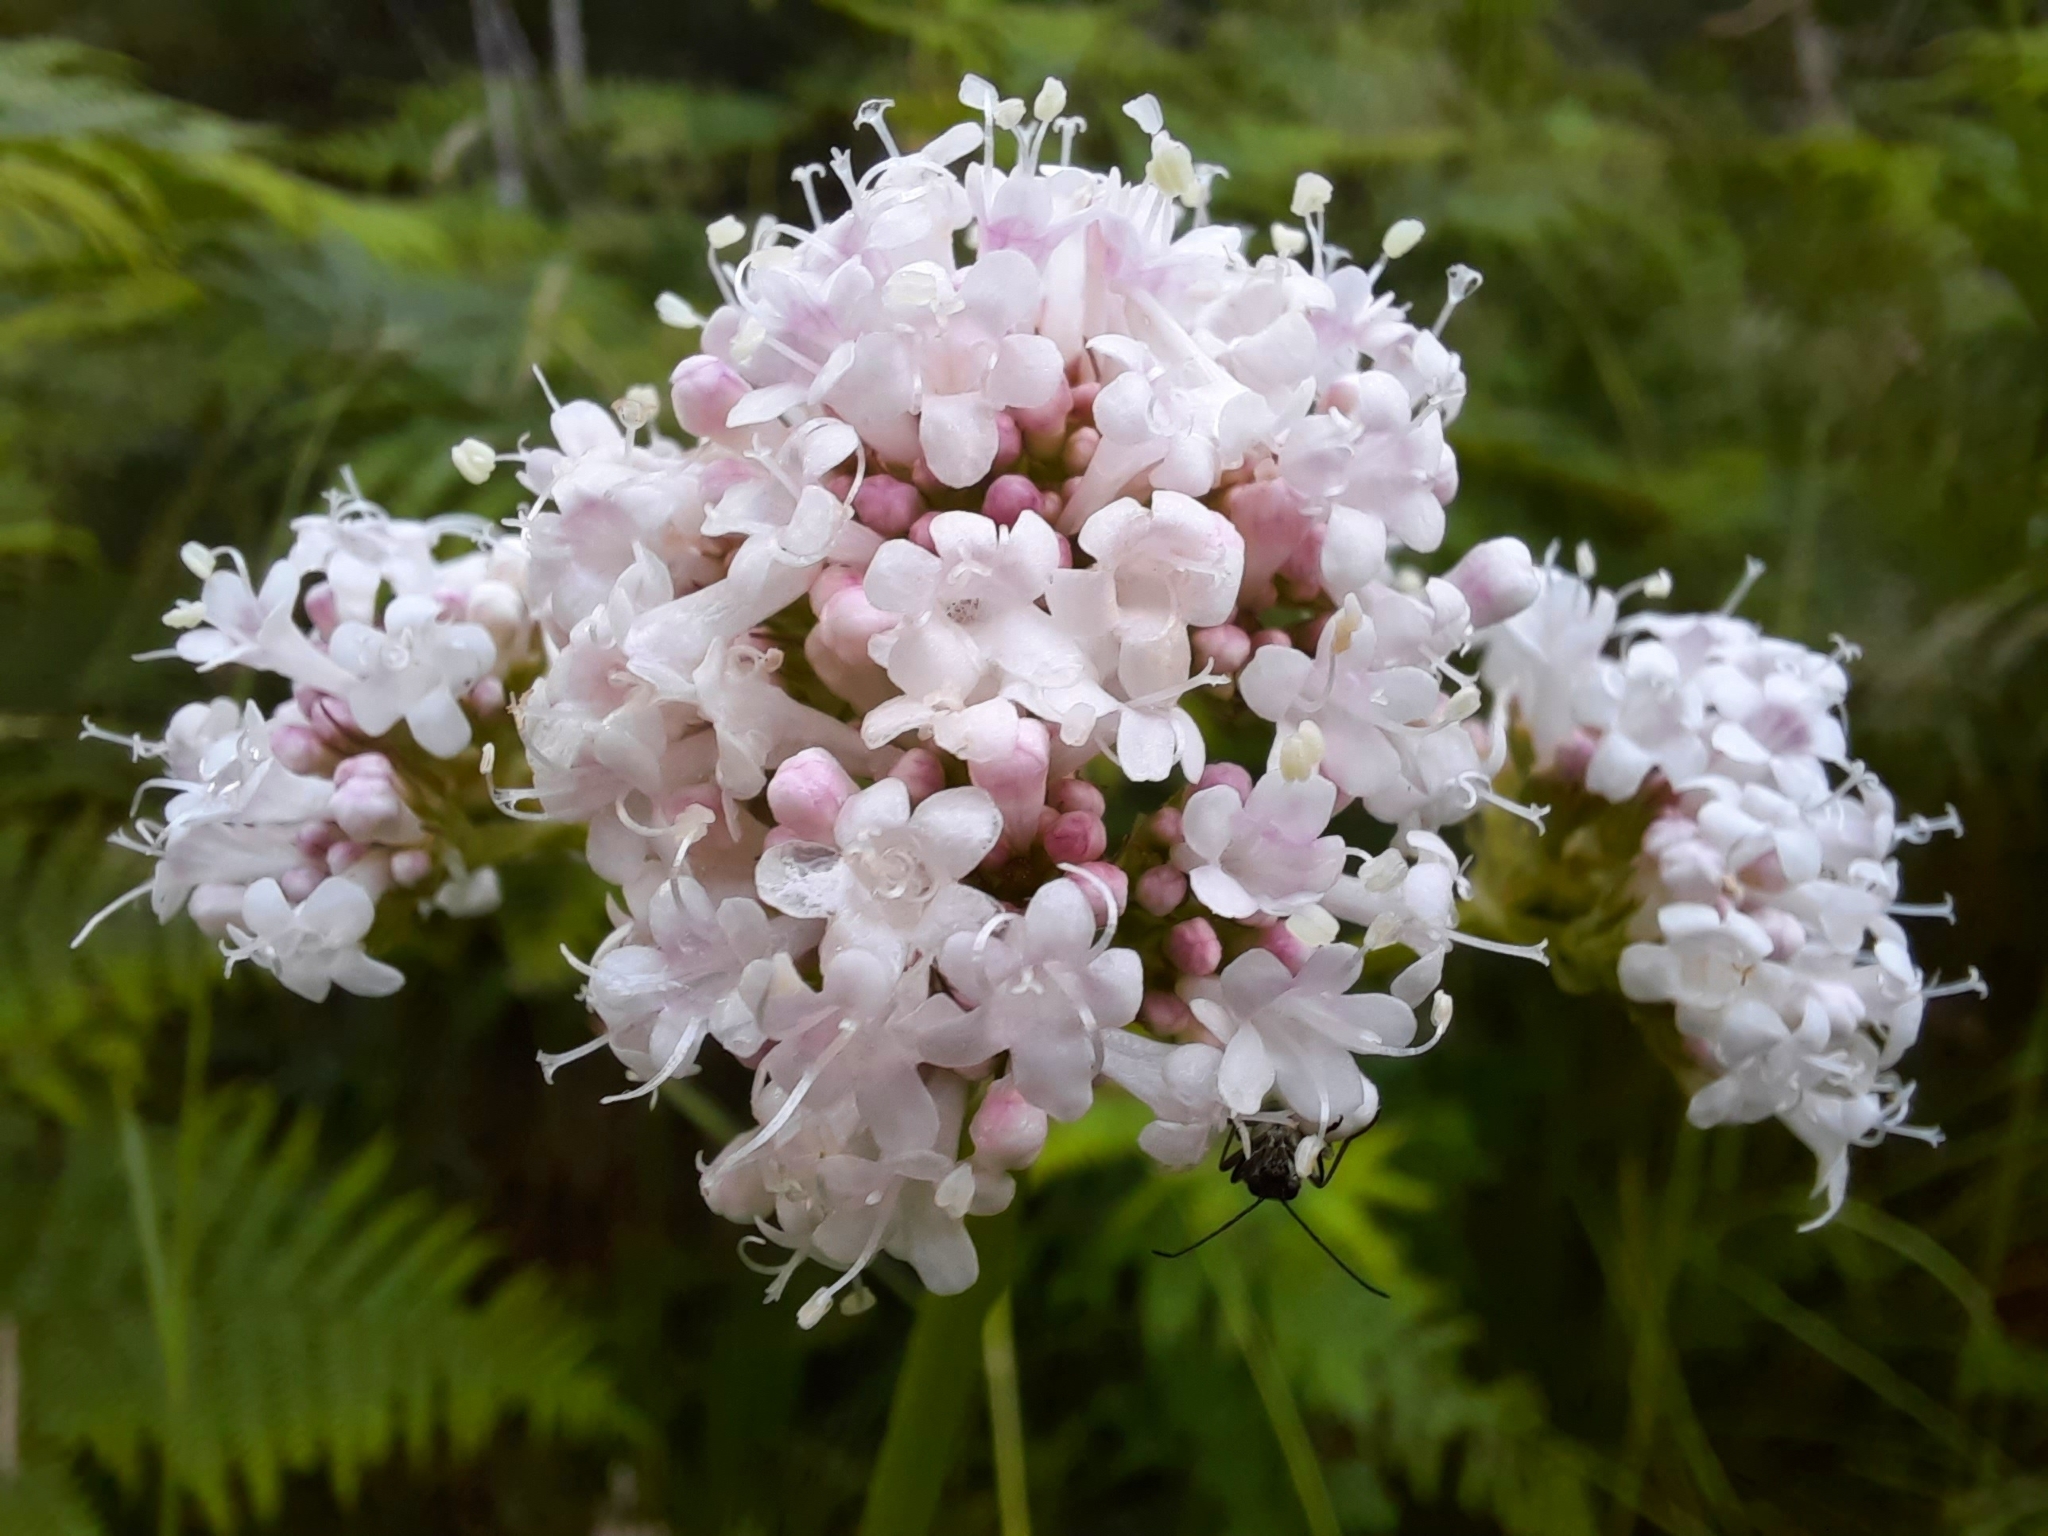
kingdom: Plantae
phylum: Tracheophyta
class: Magnoliopsida
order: Dipsacales
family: Caprifoliaceae
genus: Valeriana
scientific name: Valeriana officinalis
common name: Common valerian
